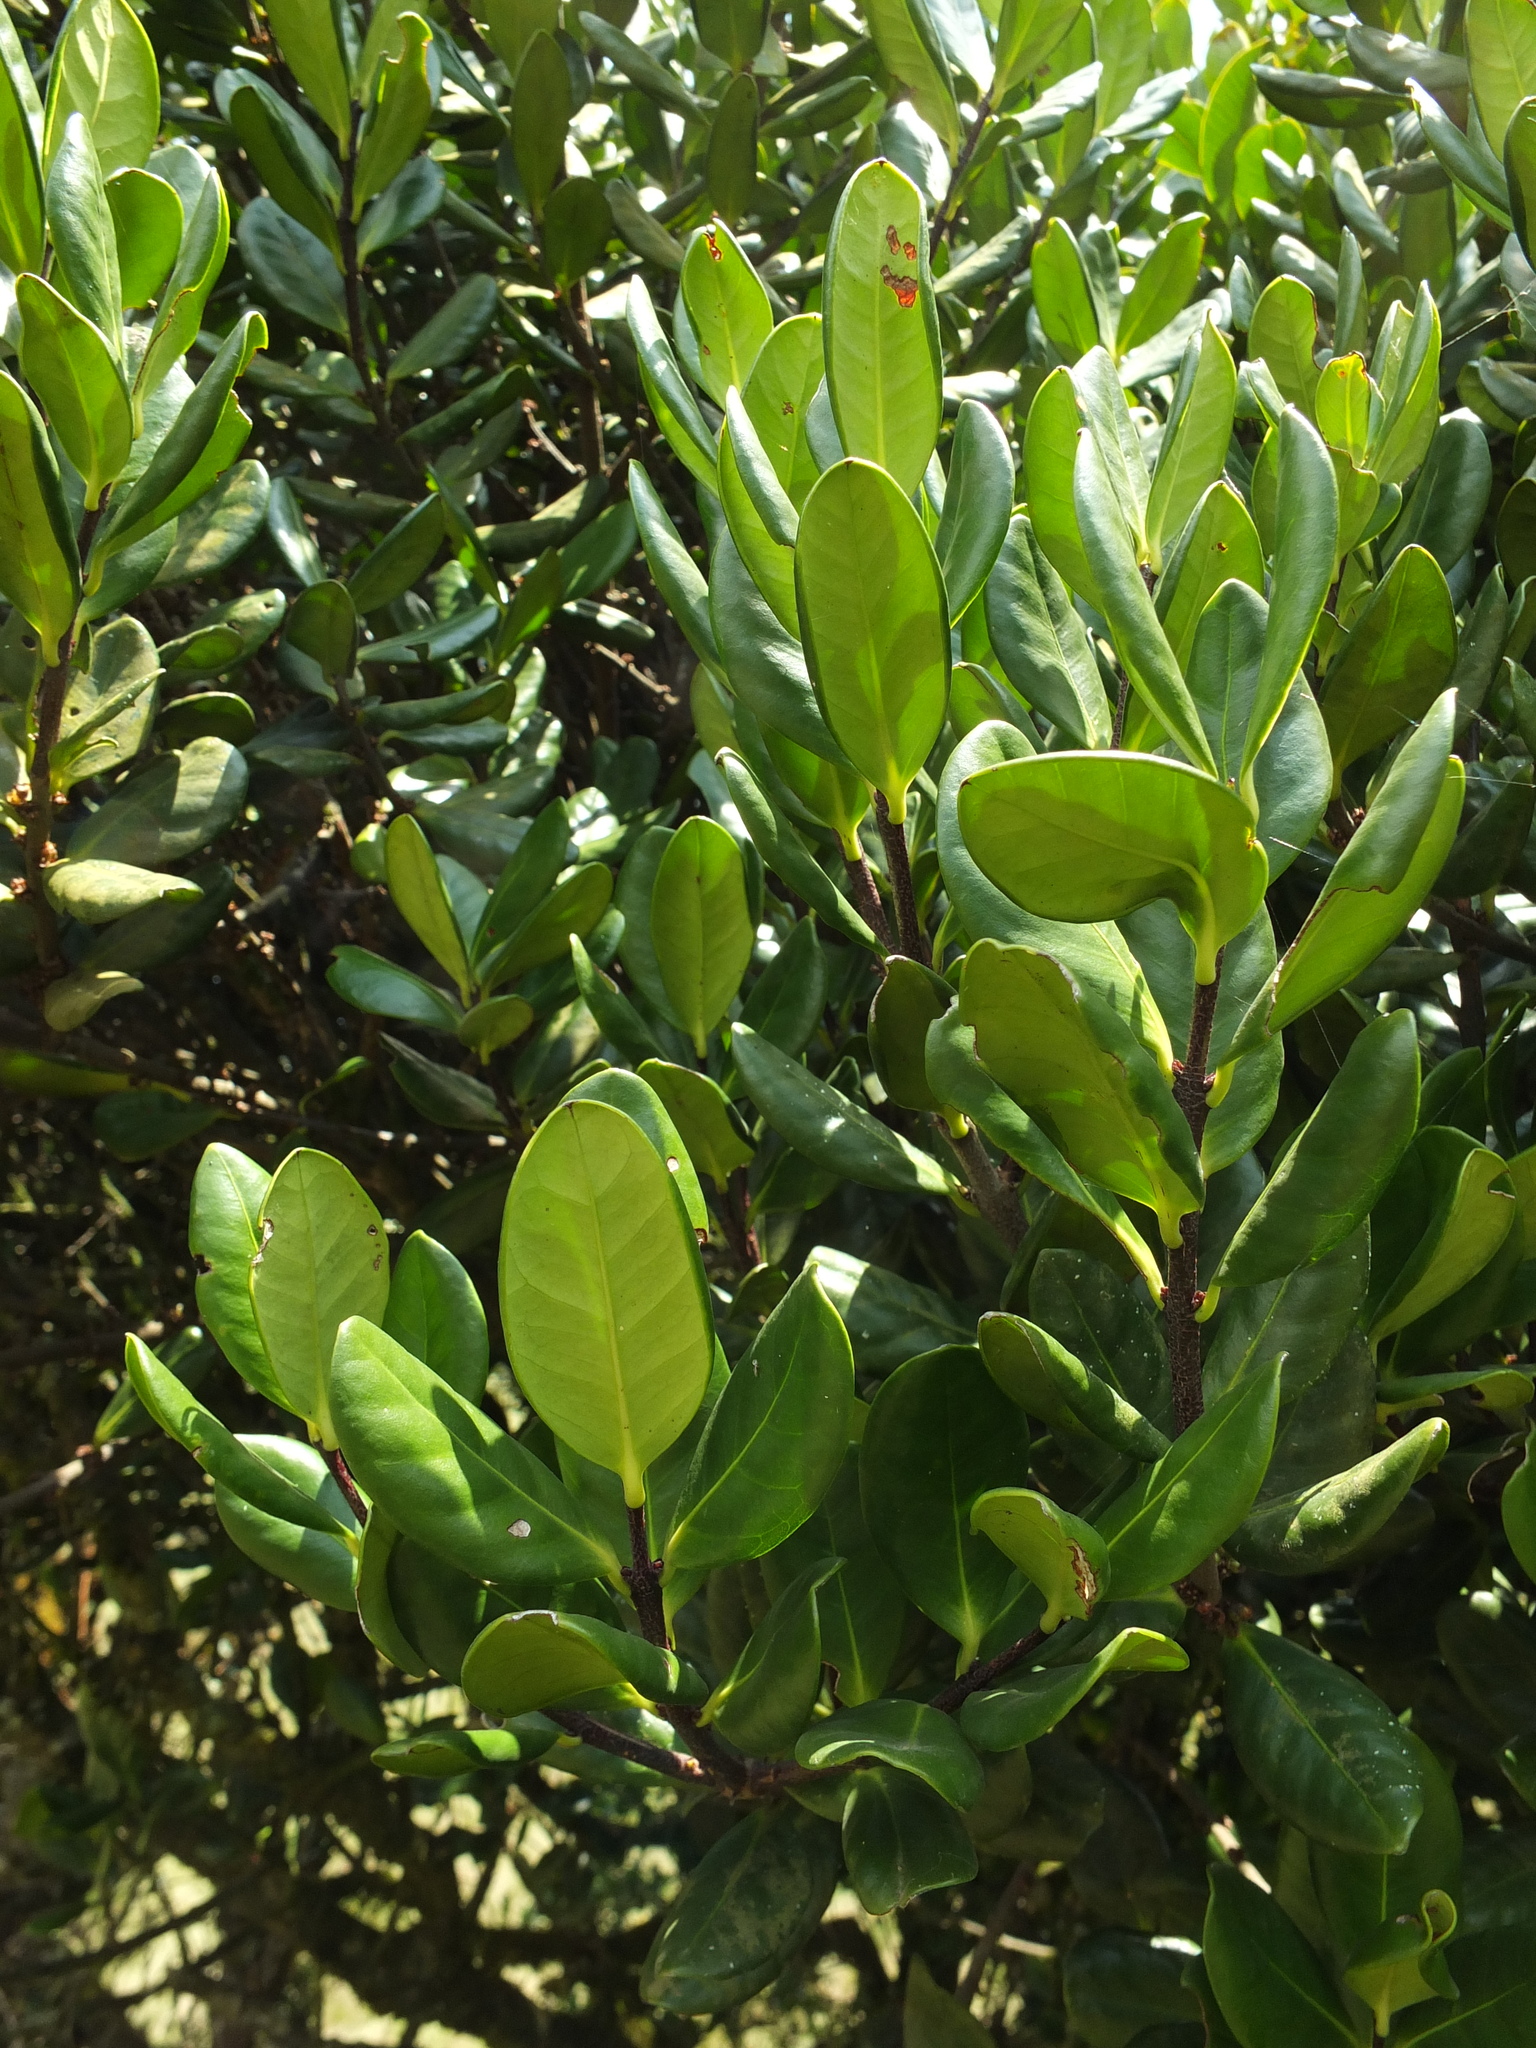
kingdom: Plantae
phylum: Tracheophyta
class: Magnoliopsida
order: Celastrales
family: Celastraceae
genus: Microtropis
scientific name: Microtropis ramiflora
